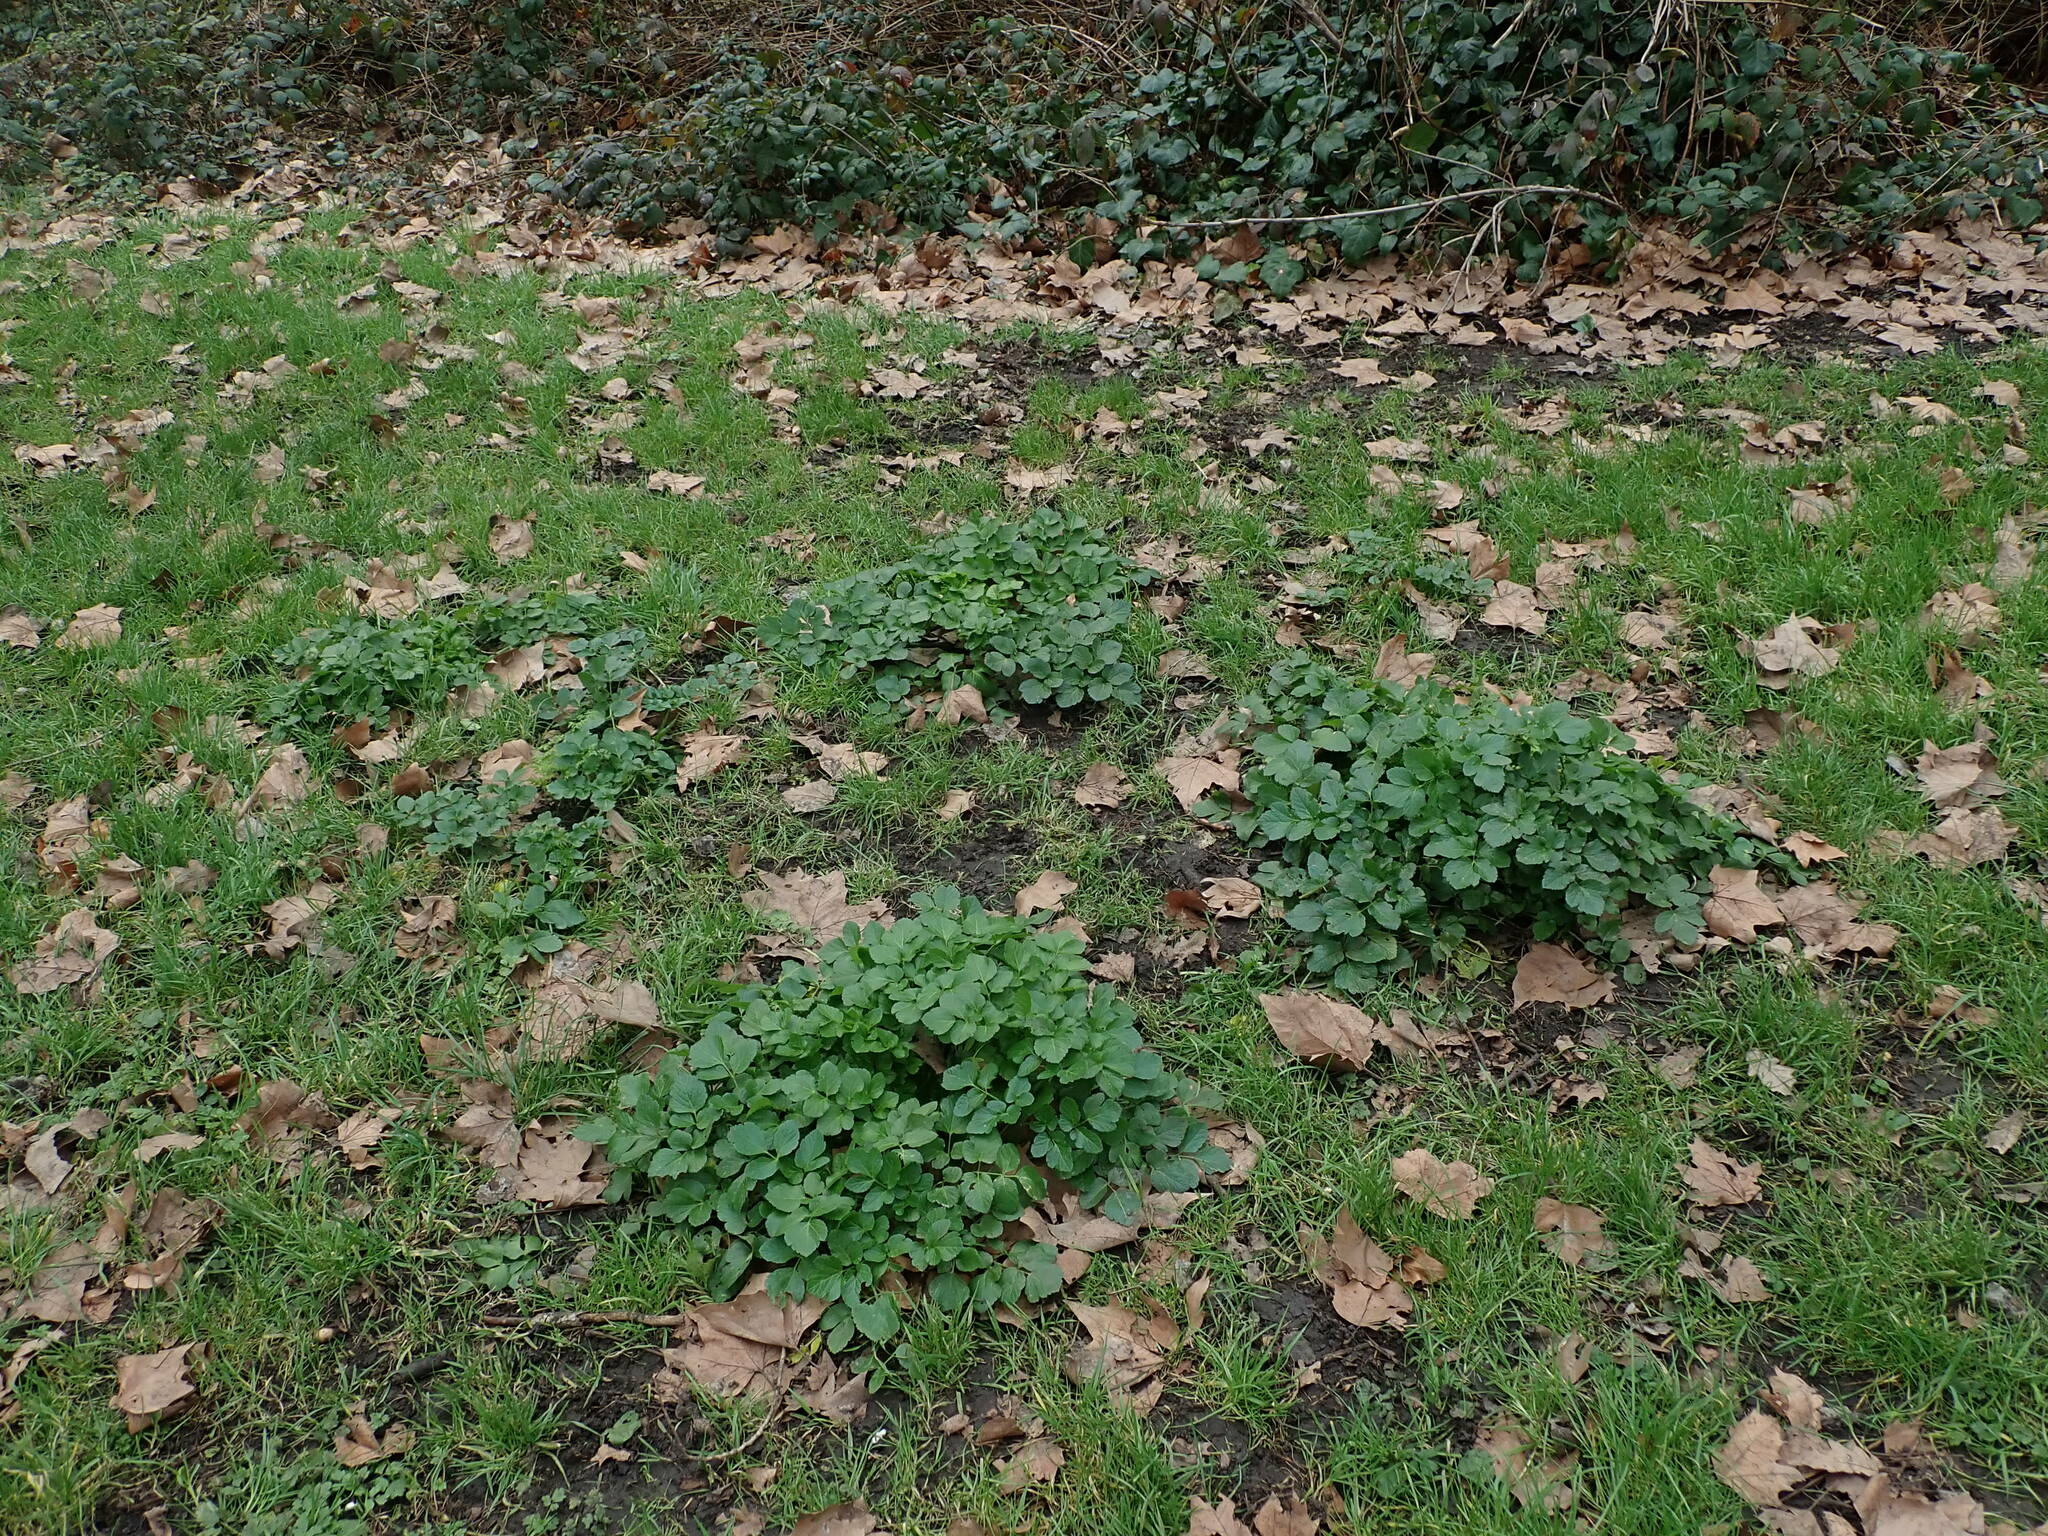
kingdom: Plantae
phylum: Tracheophyta
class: Magnoliopsida
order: Apiales
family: Apiaceae
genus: Smyrnium
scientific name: Smyrnium olusatrum
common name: Alexanders
